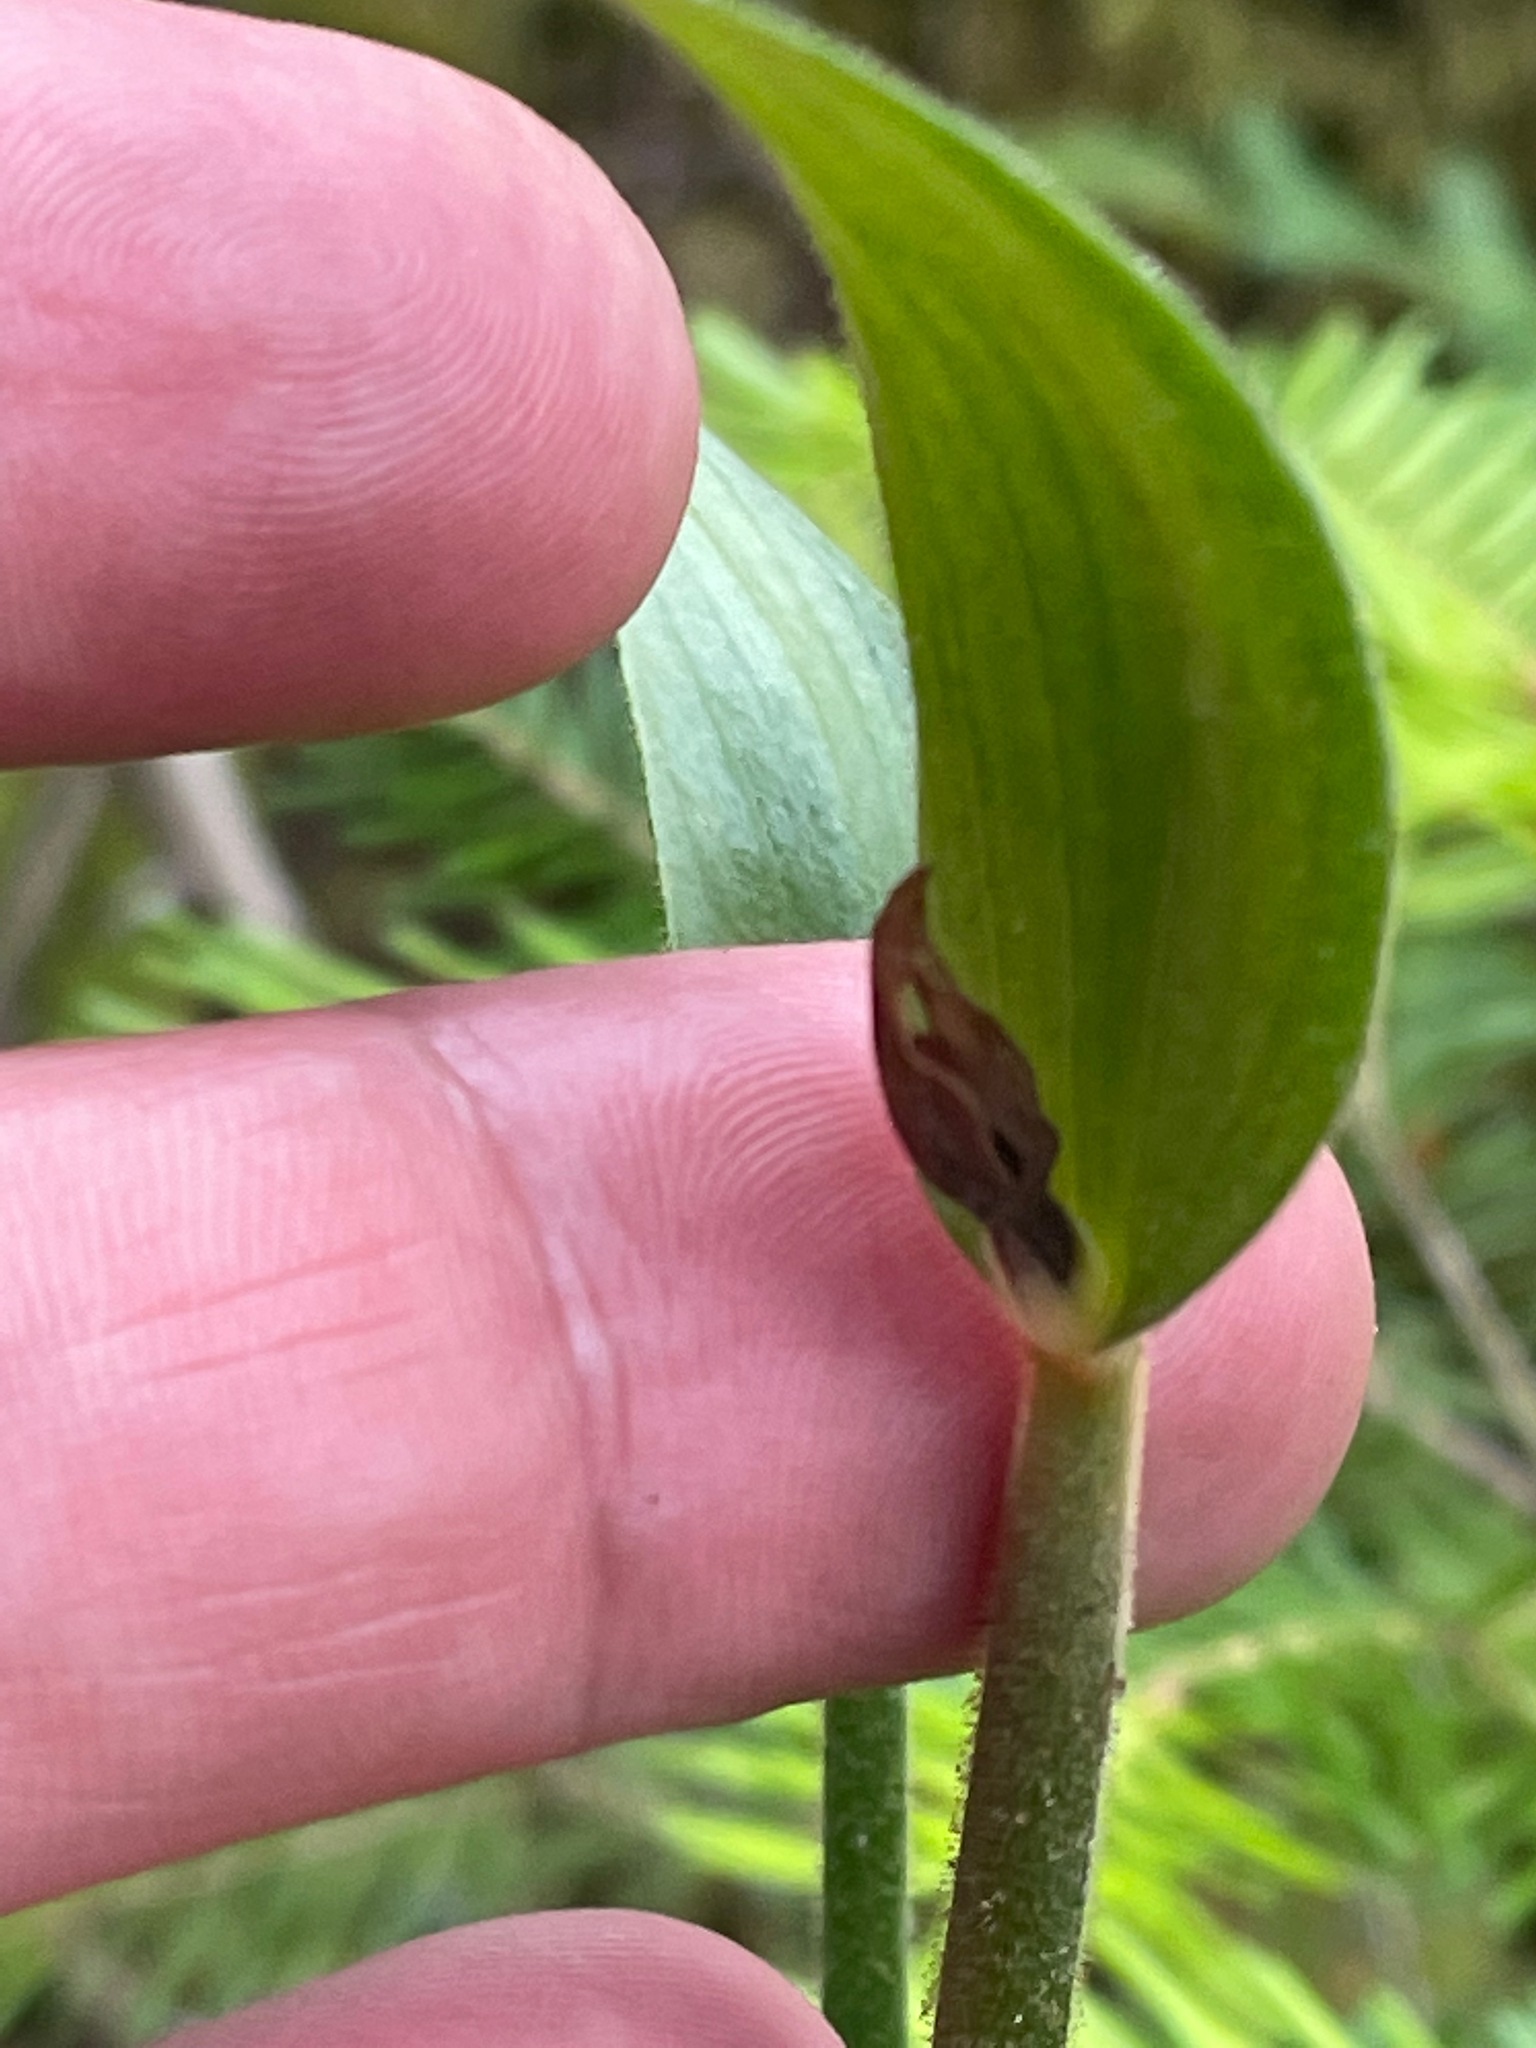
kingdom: Plantae
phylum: Tracheophyta
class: Liliopsida
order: Asparagales
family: Orchidaceae
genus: Cypripedium
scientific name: Cypripedium acaule
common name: Pink lady's-slipper
